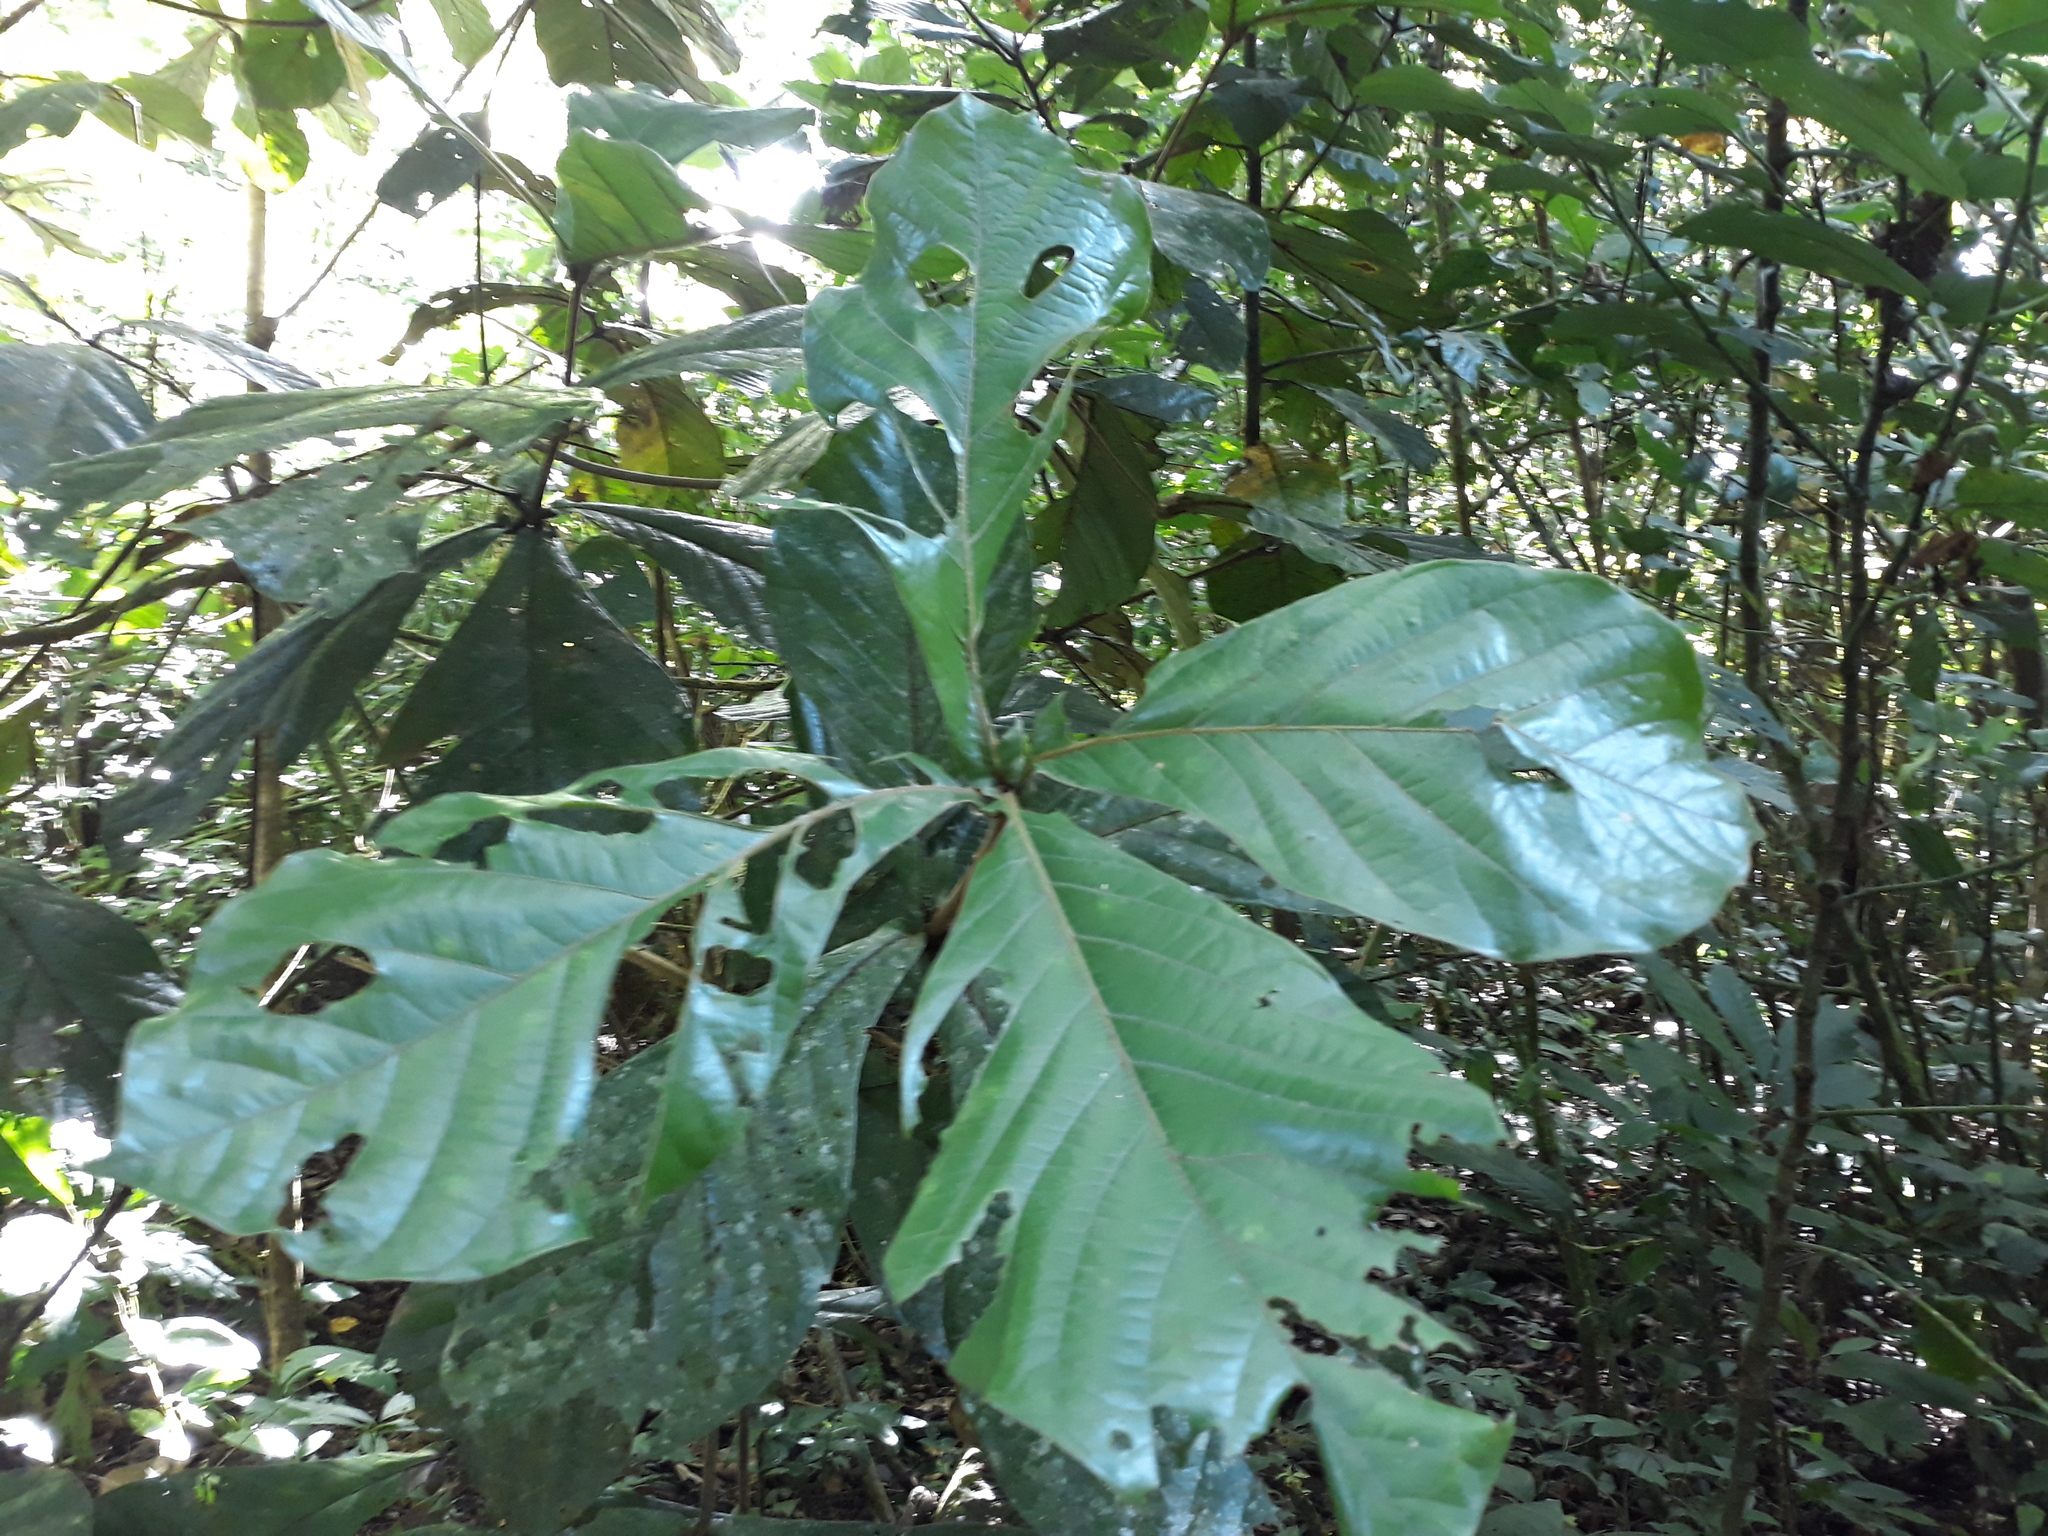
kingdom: Plantae
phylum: Tracheophyta
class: Magnoliopsida
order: Laurales
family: Lauraceae
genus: Ocotea
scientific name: Ocotea botrantha
